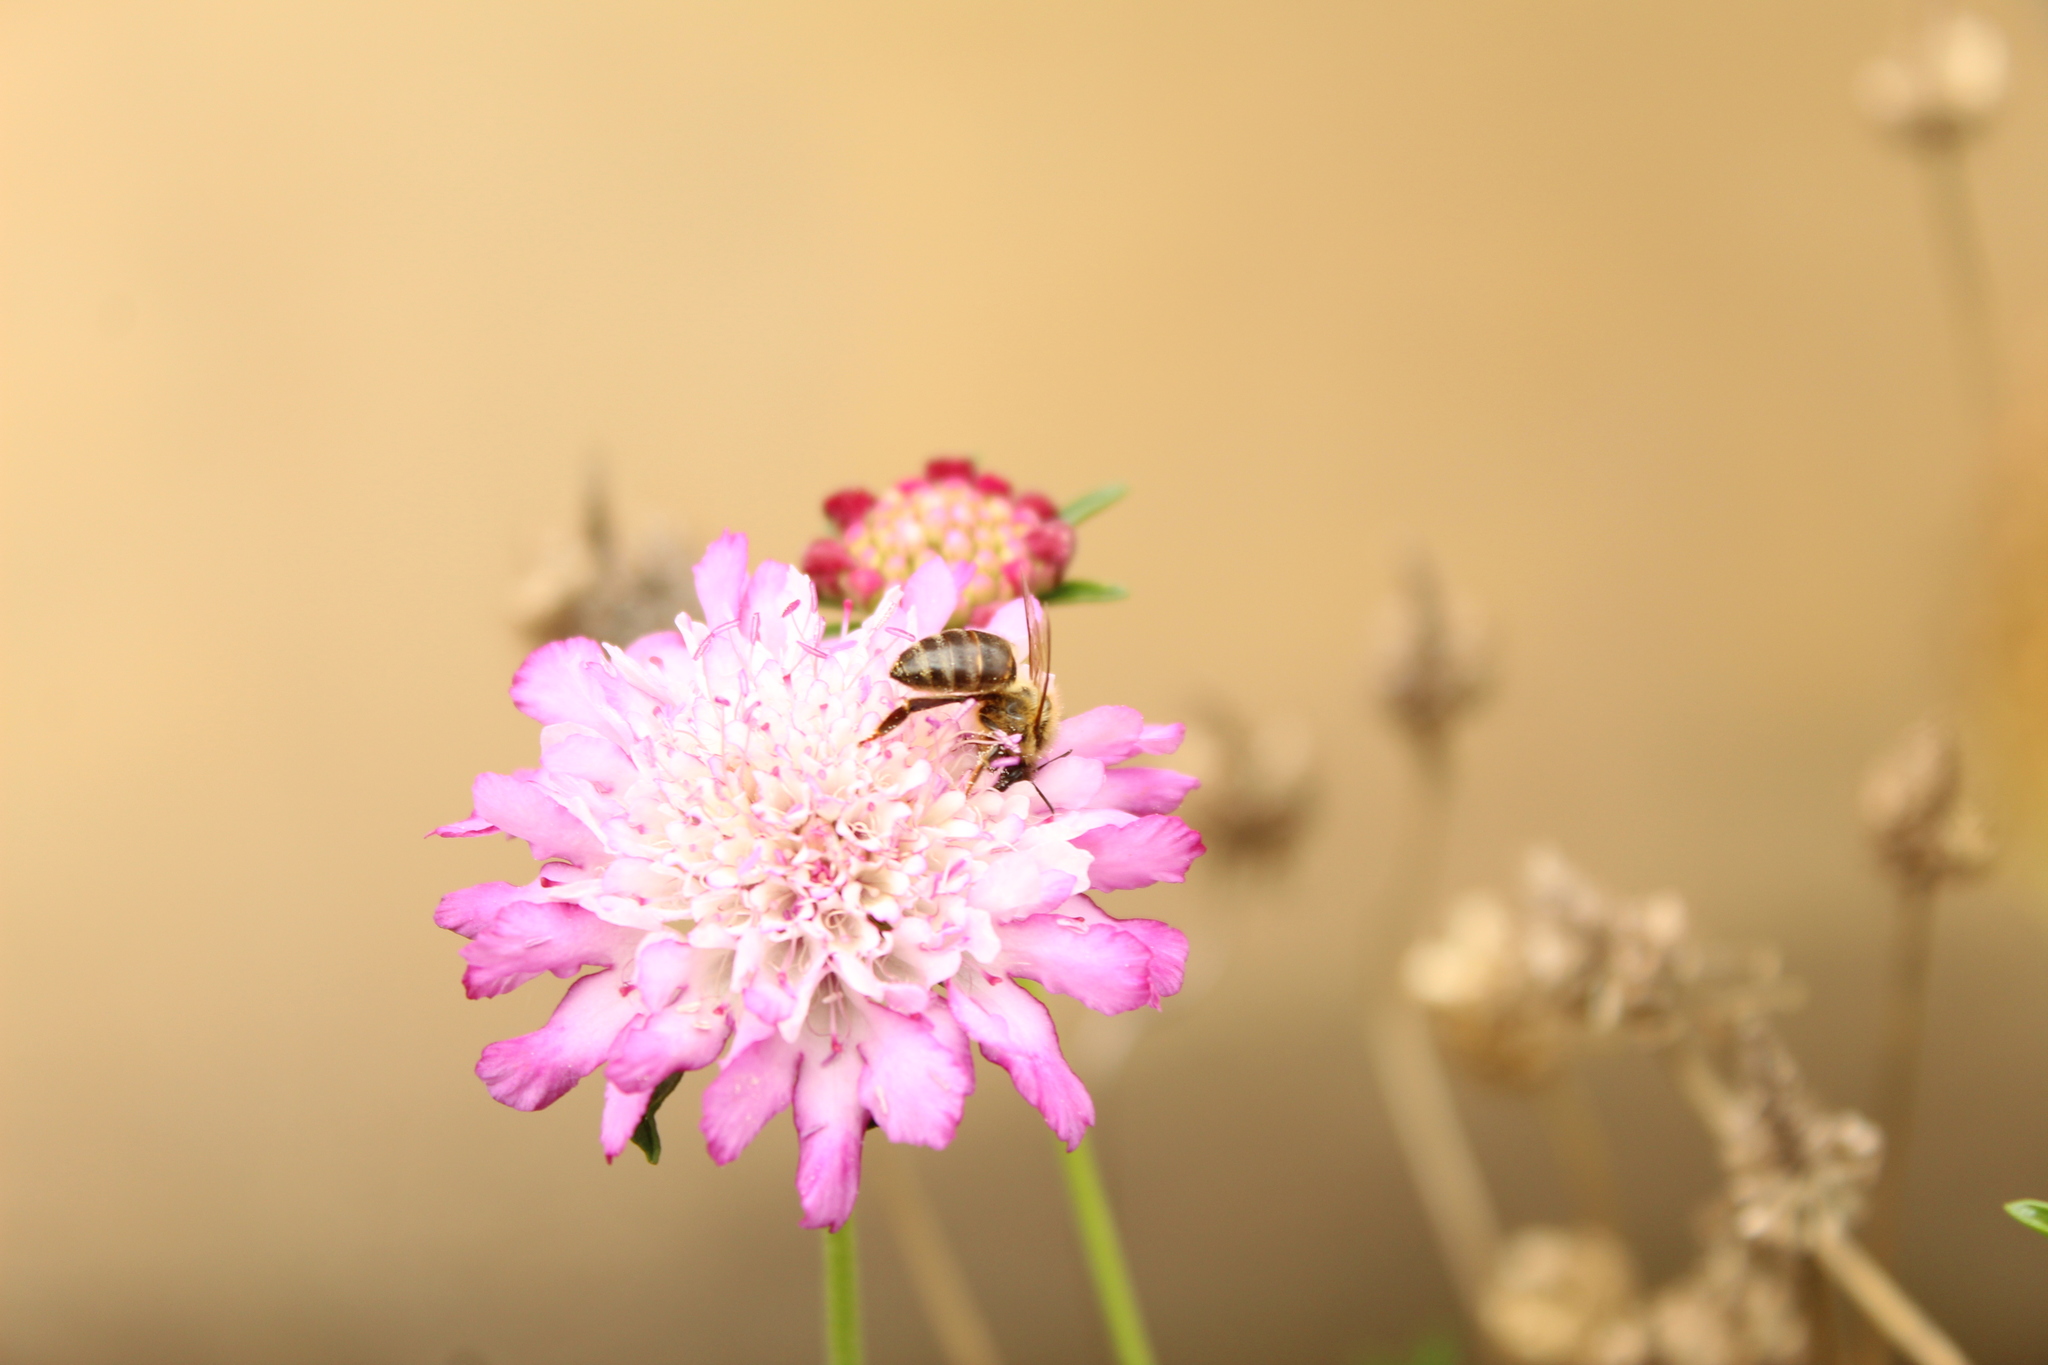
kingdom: Animalia
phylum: Arthropoda
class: Insecta
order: Hymenoptera
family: Apidae
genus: Apis
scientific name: Apis mellifera
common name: Honey bee
